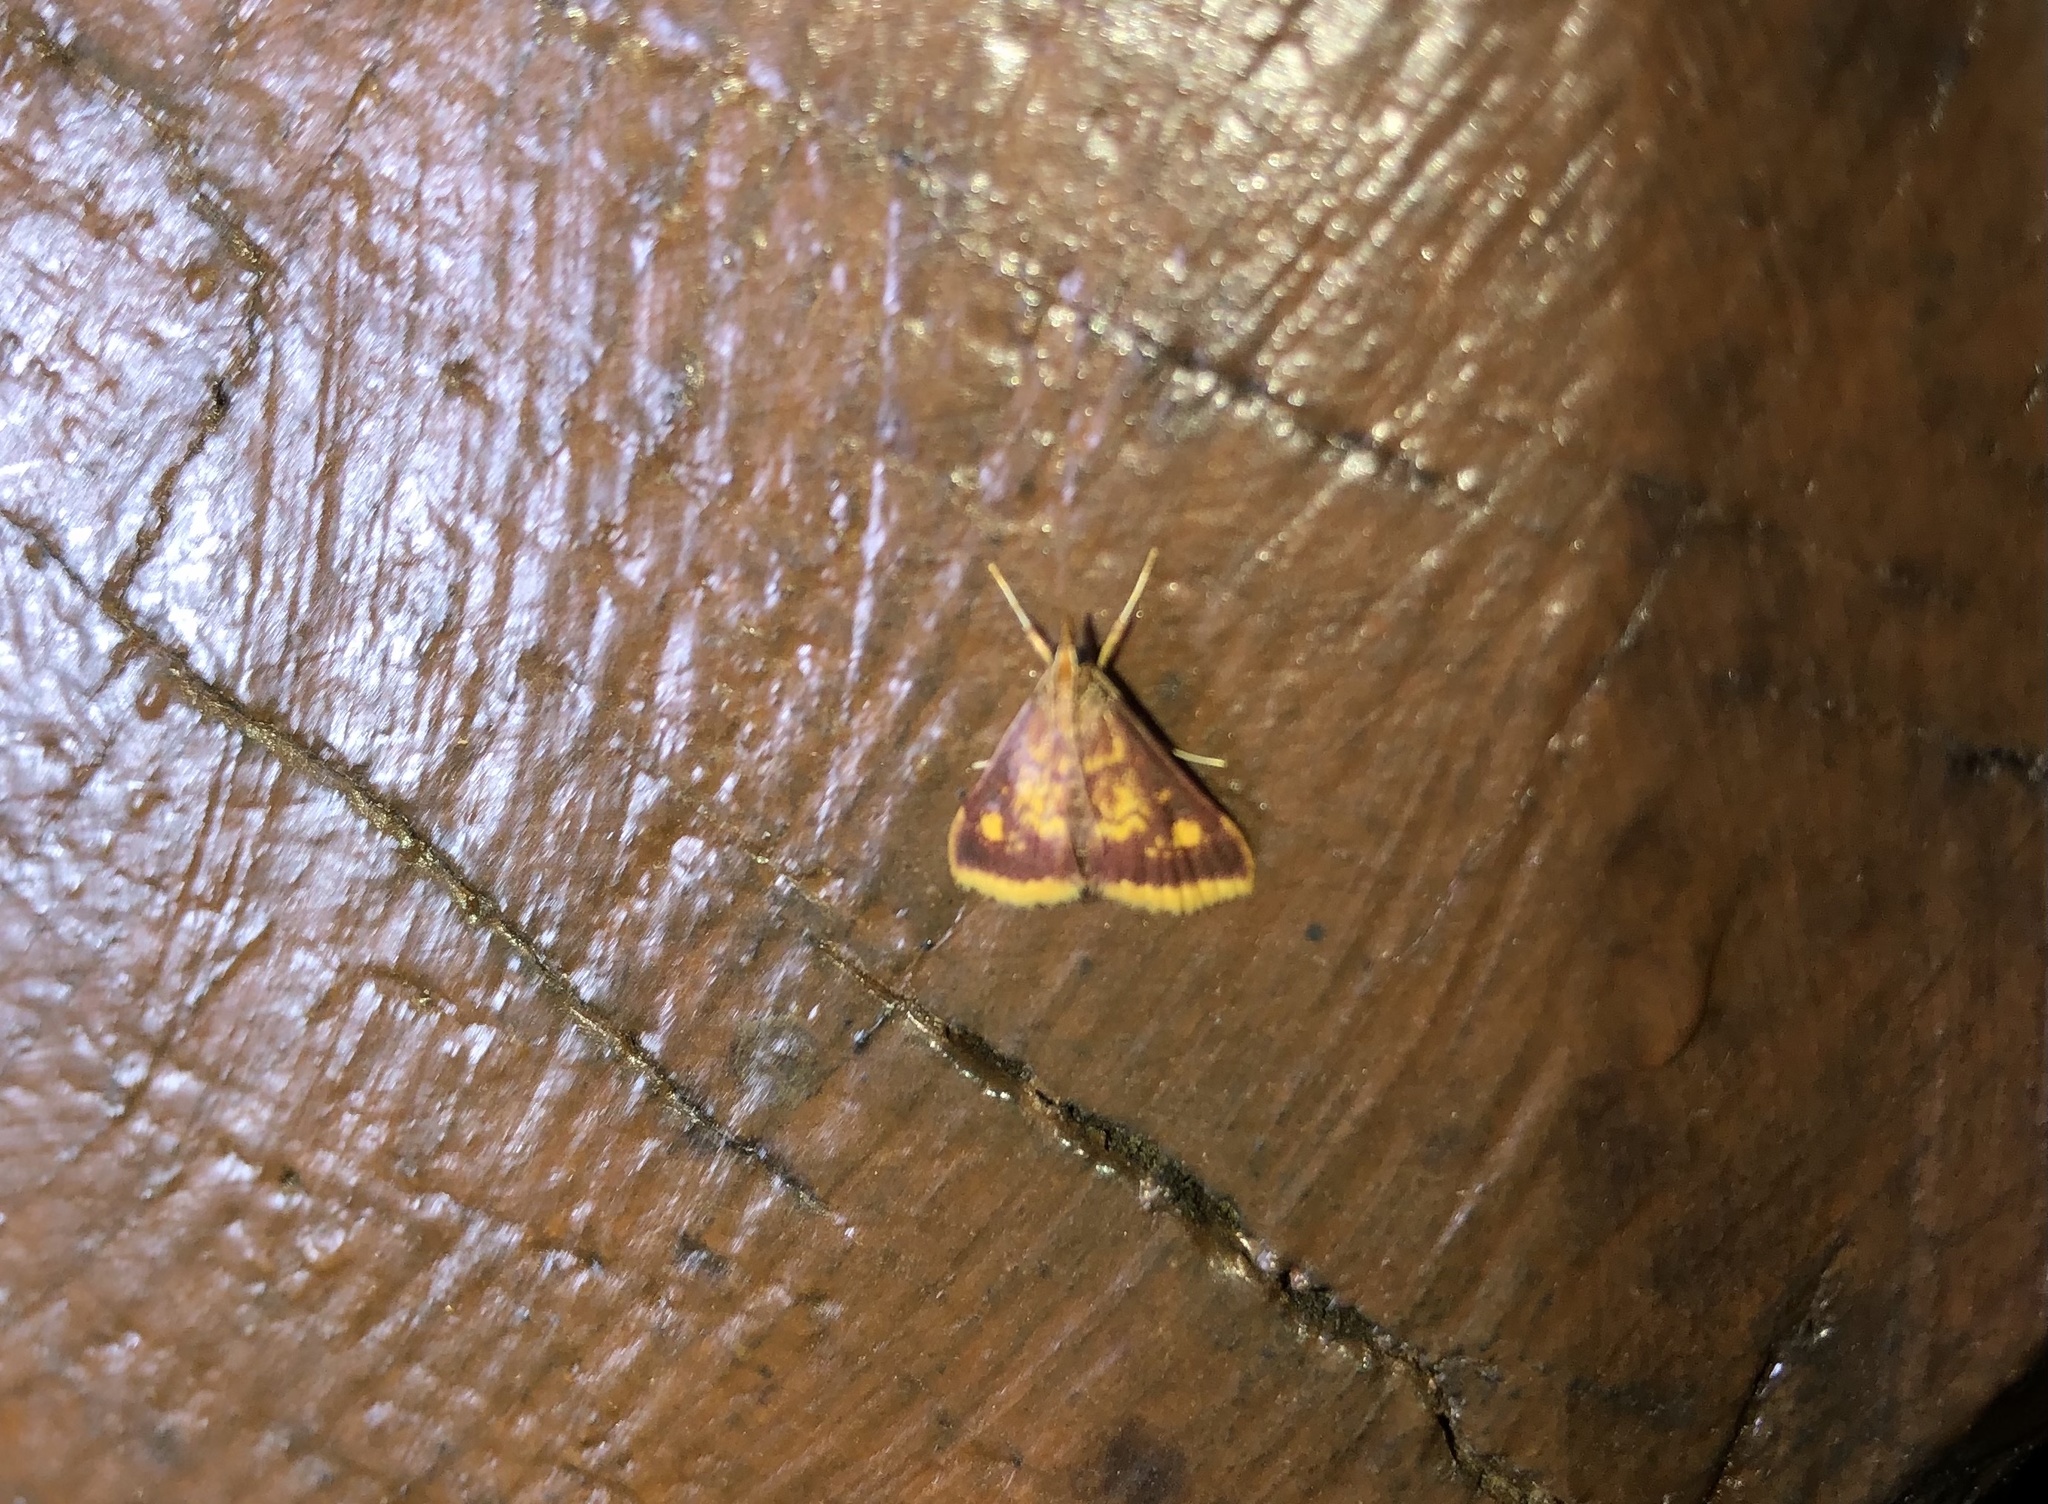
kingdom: Animalia
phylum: Arthropoda
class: Insecta
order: Lepidoptera
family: Crambidae
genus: Pyrausta
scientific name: Pyrausta acrionalis
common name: Mint-loving pyrausta moth
